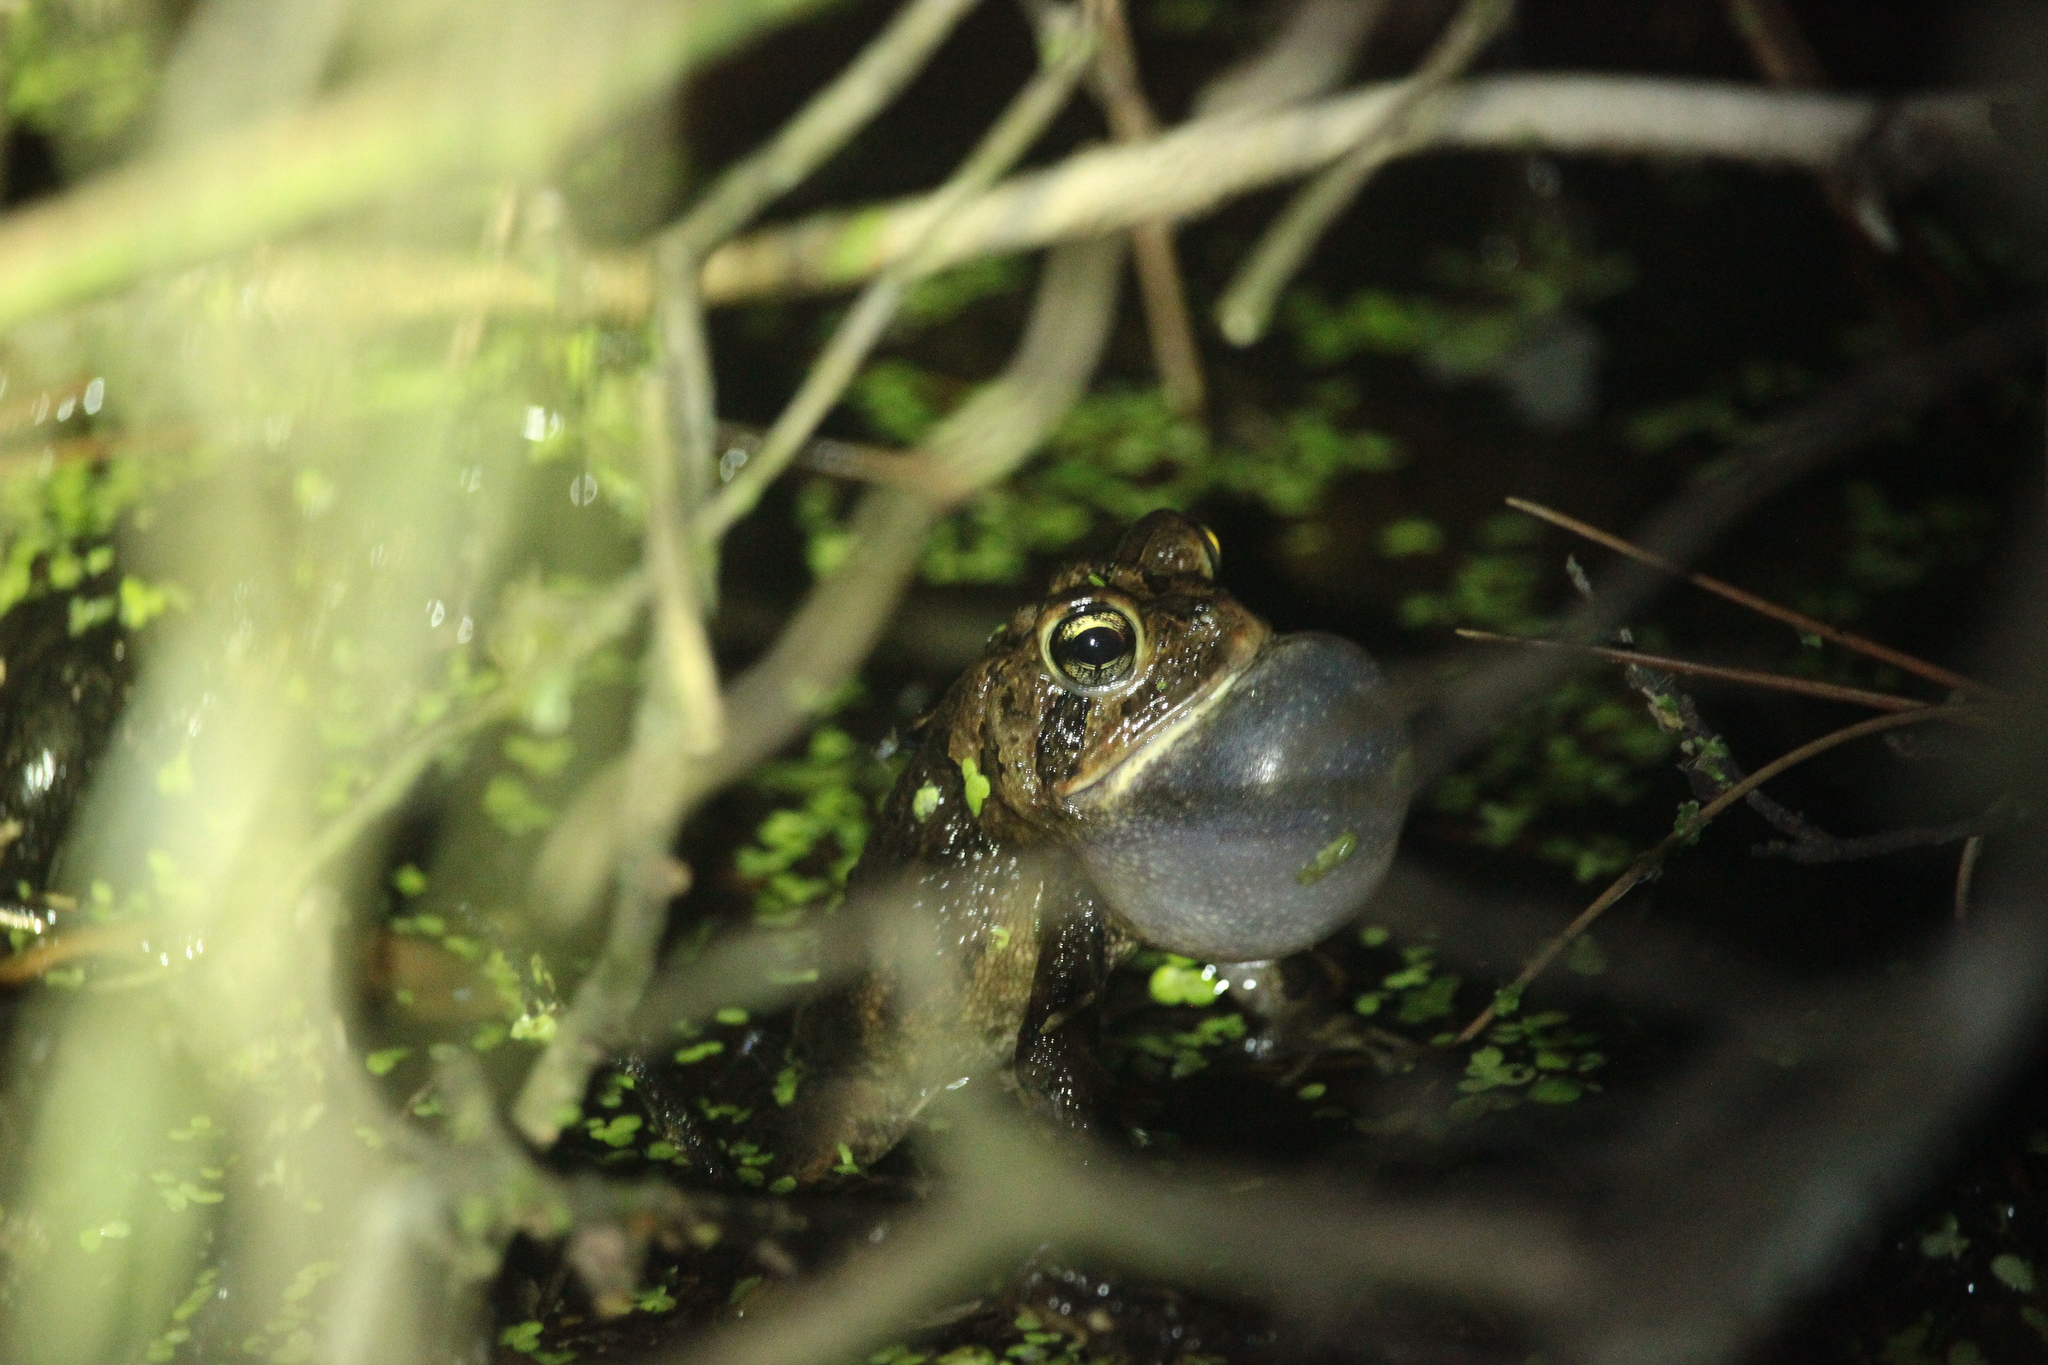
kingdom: Animalia
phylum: Chordata
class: Amphibia
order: Anura
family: Bufonidae
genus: Anaxyrus
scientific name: Anaxyrus terrestris
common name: Southern toad
